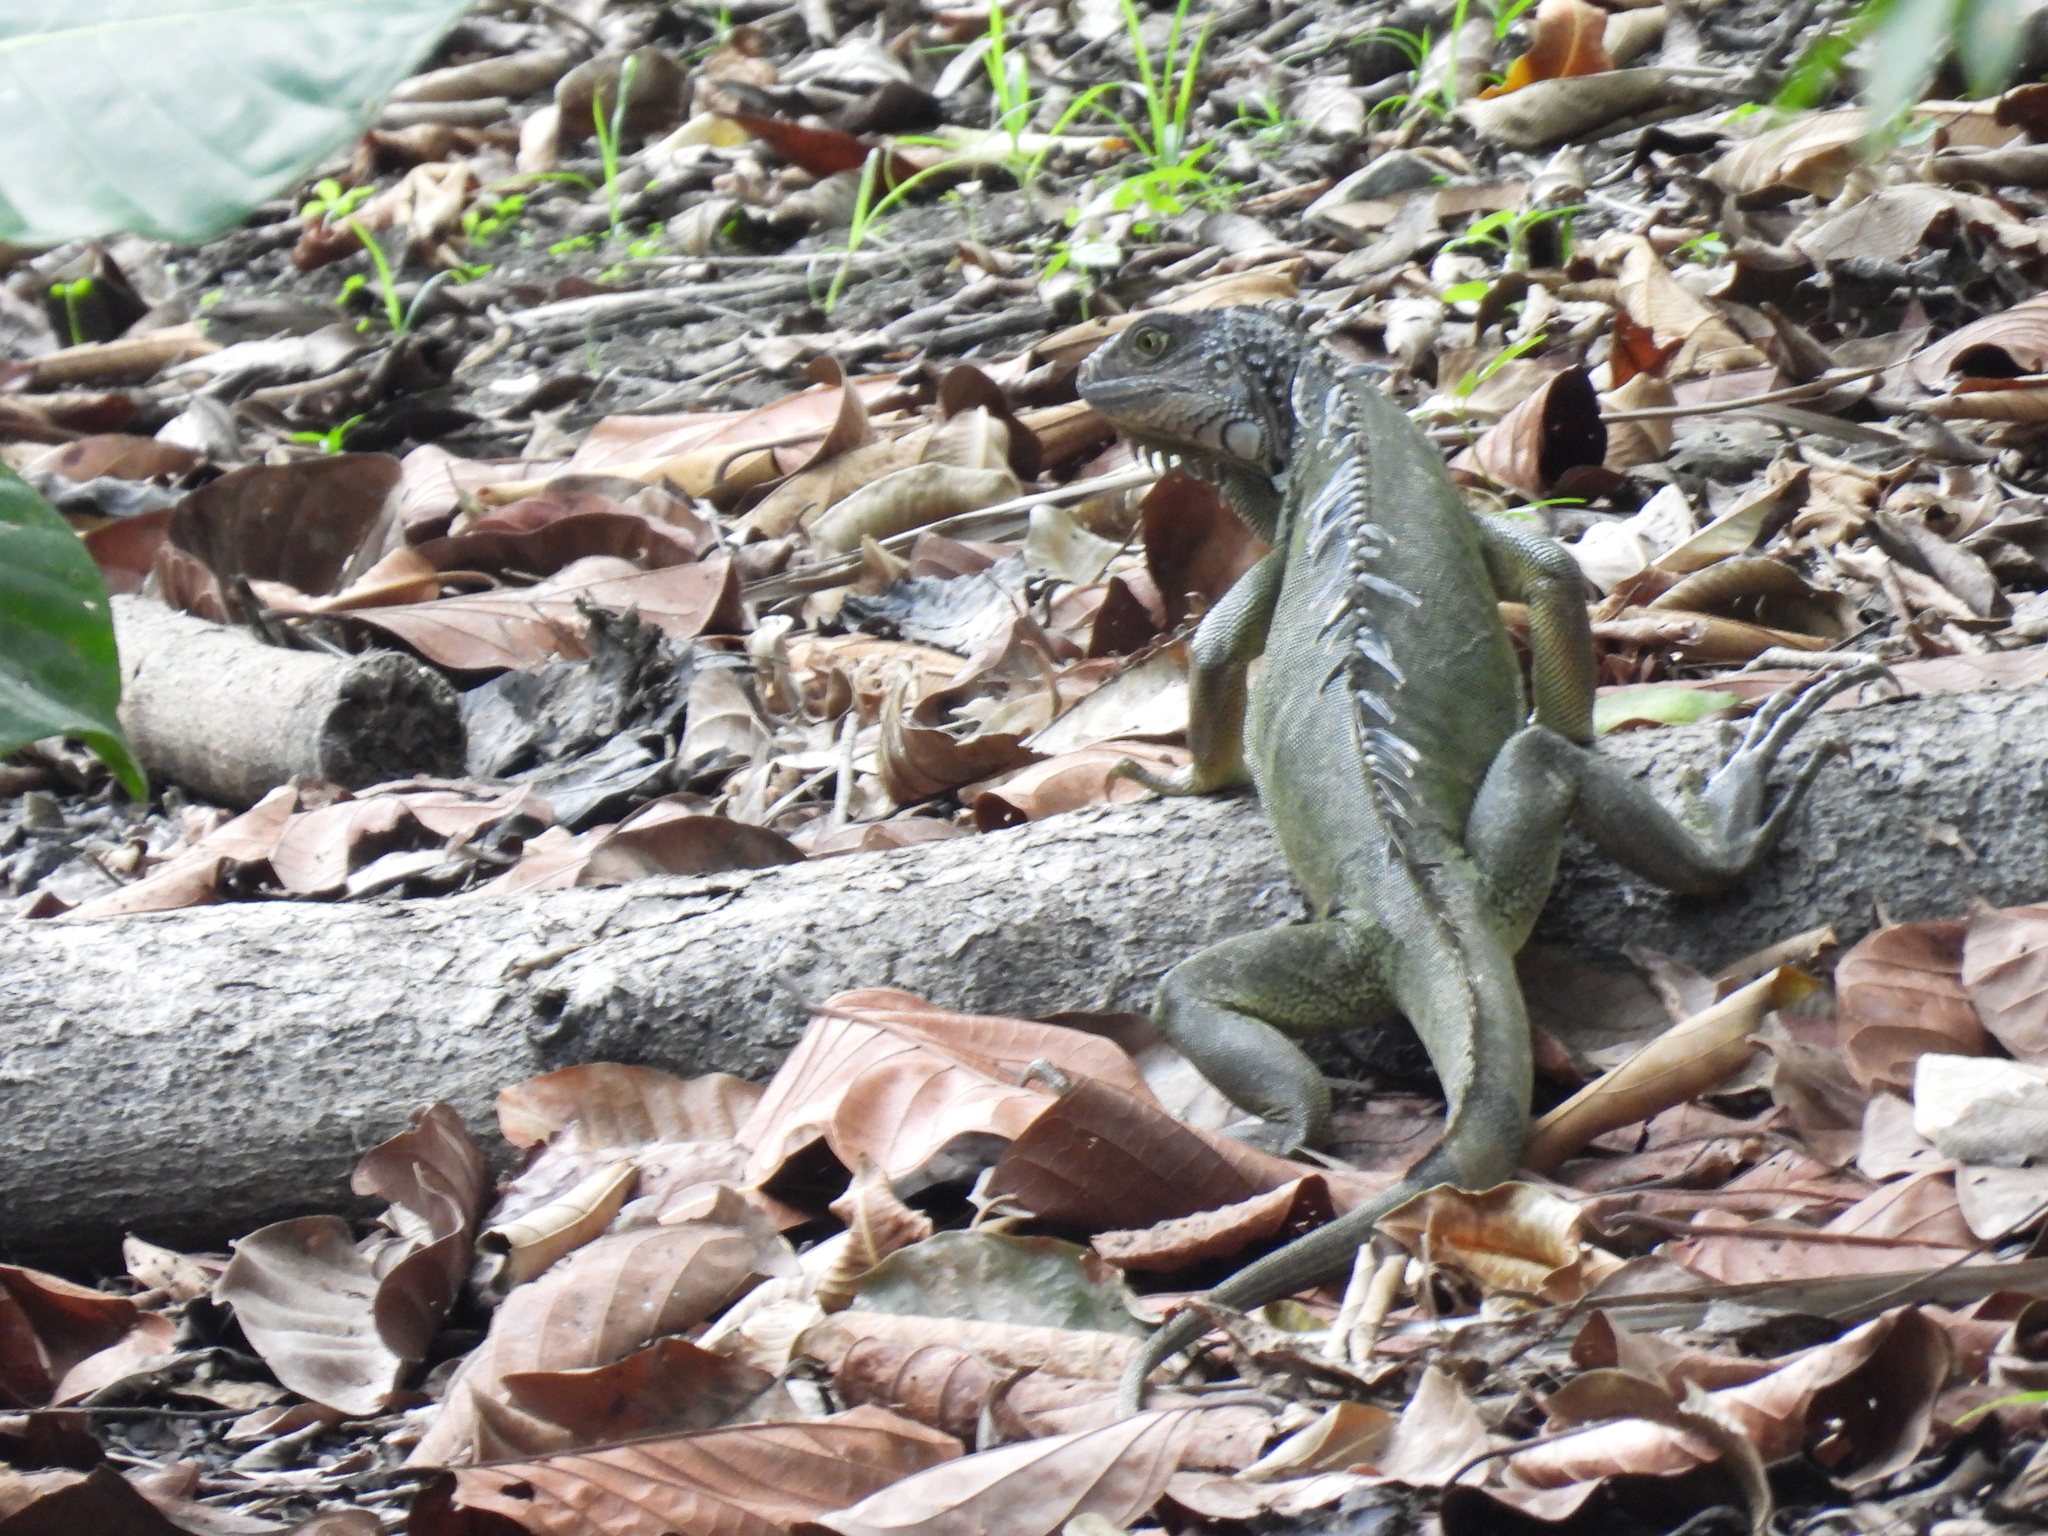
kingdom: Animalia
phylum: Chordata
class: Squamata
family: Iguanidae
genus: Iguana
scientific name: Iguana iguana
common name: Green iguana
